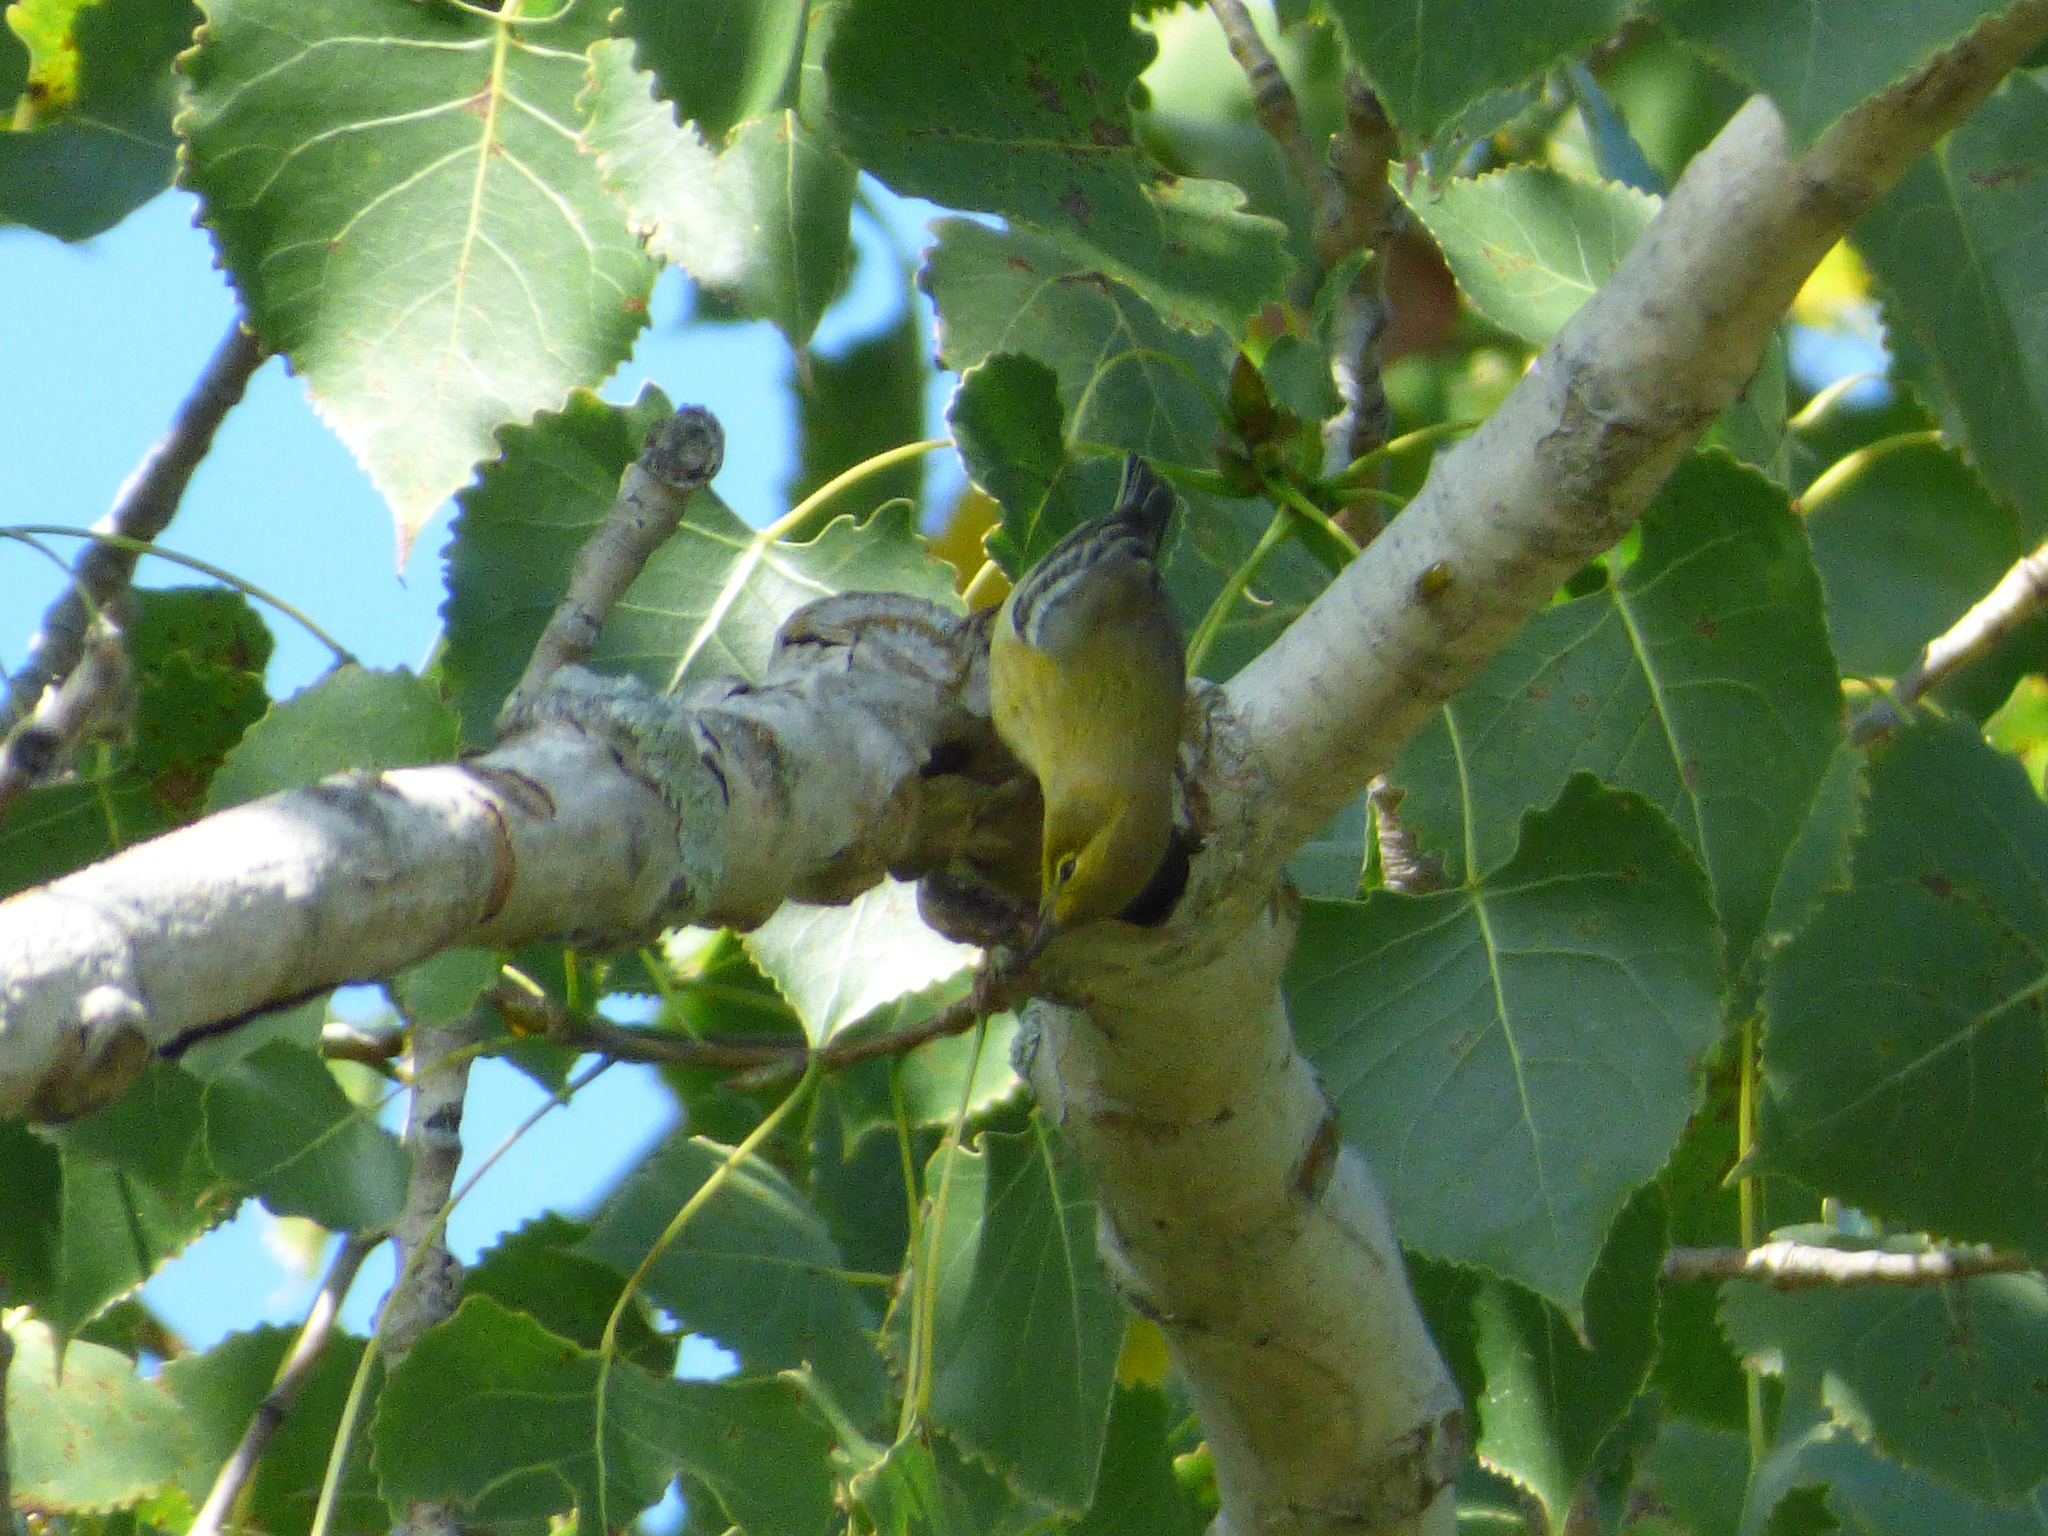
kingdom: Animalia
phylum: Chordata
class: Aves
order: Passeriformes
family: Parulidae
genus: Setophaga
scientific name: Setophaga pinus
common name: Pine warbler
